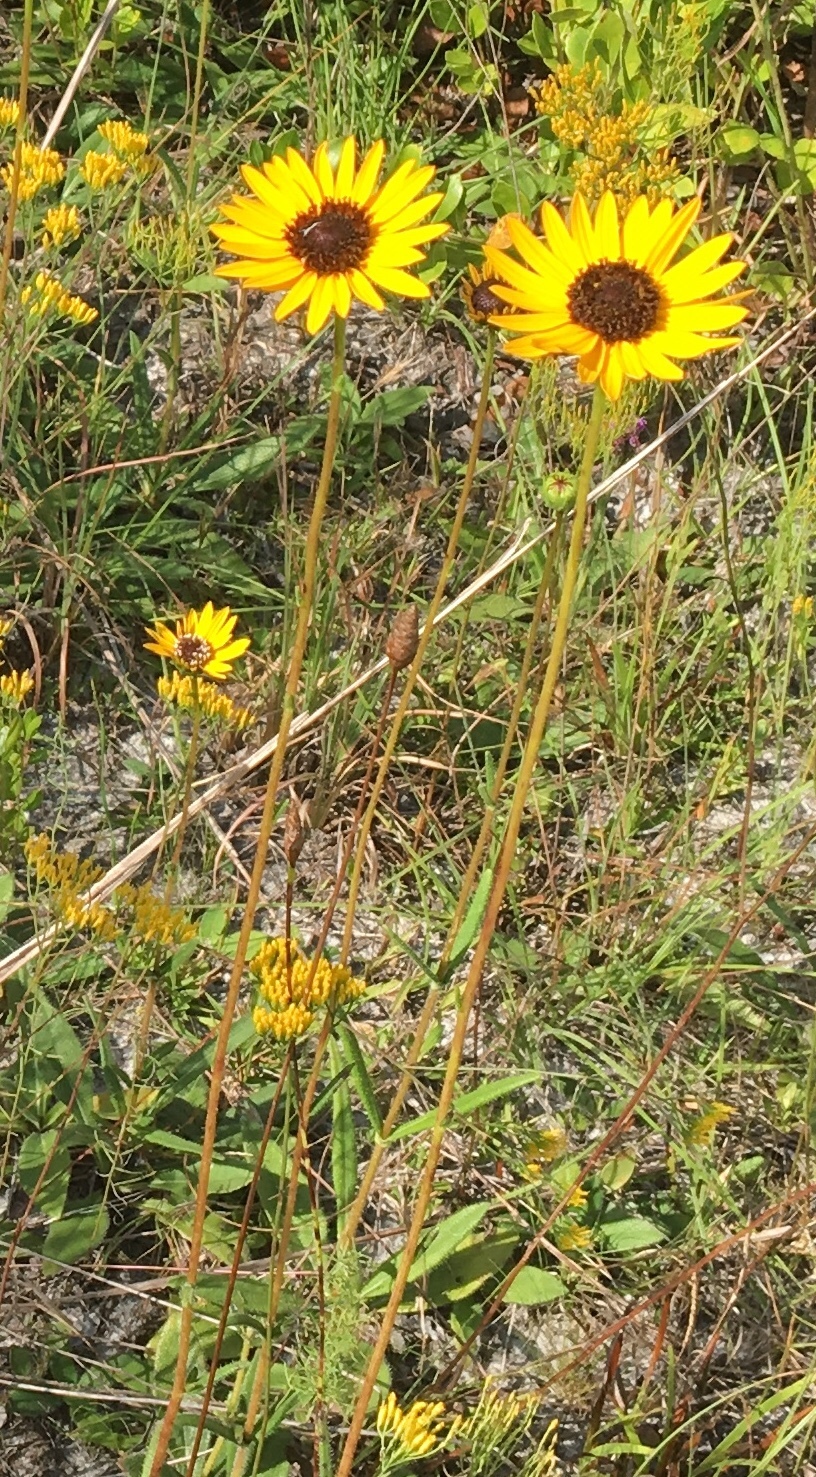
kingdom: Plantae
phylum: Tracheophyta
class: Magnoliopsida
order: Asterales
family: Asteraceae
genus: Helianthus
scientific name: Helianthus heterophyllus
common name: Wetland sunflower
